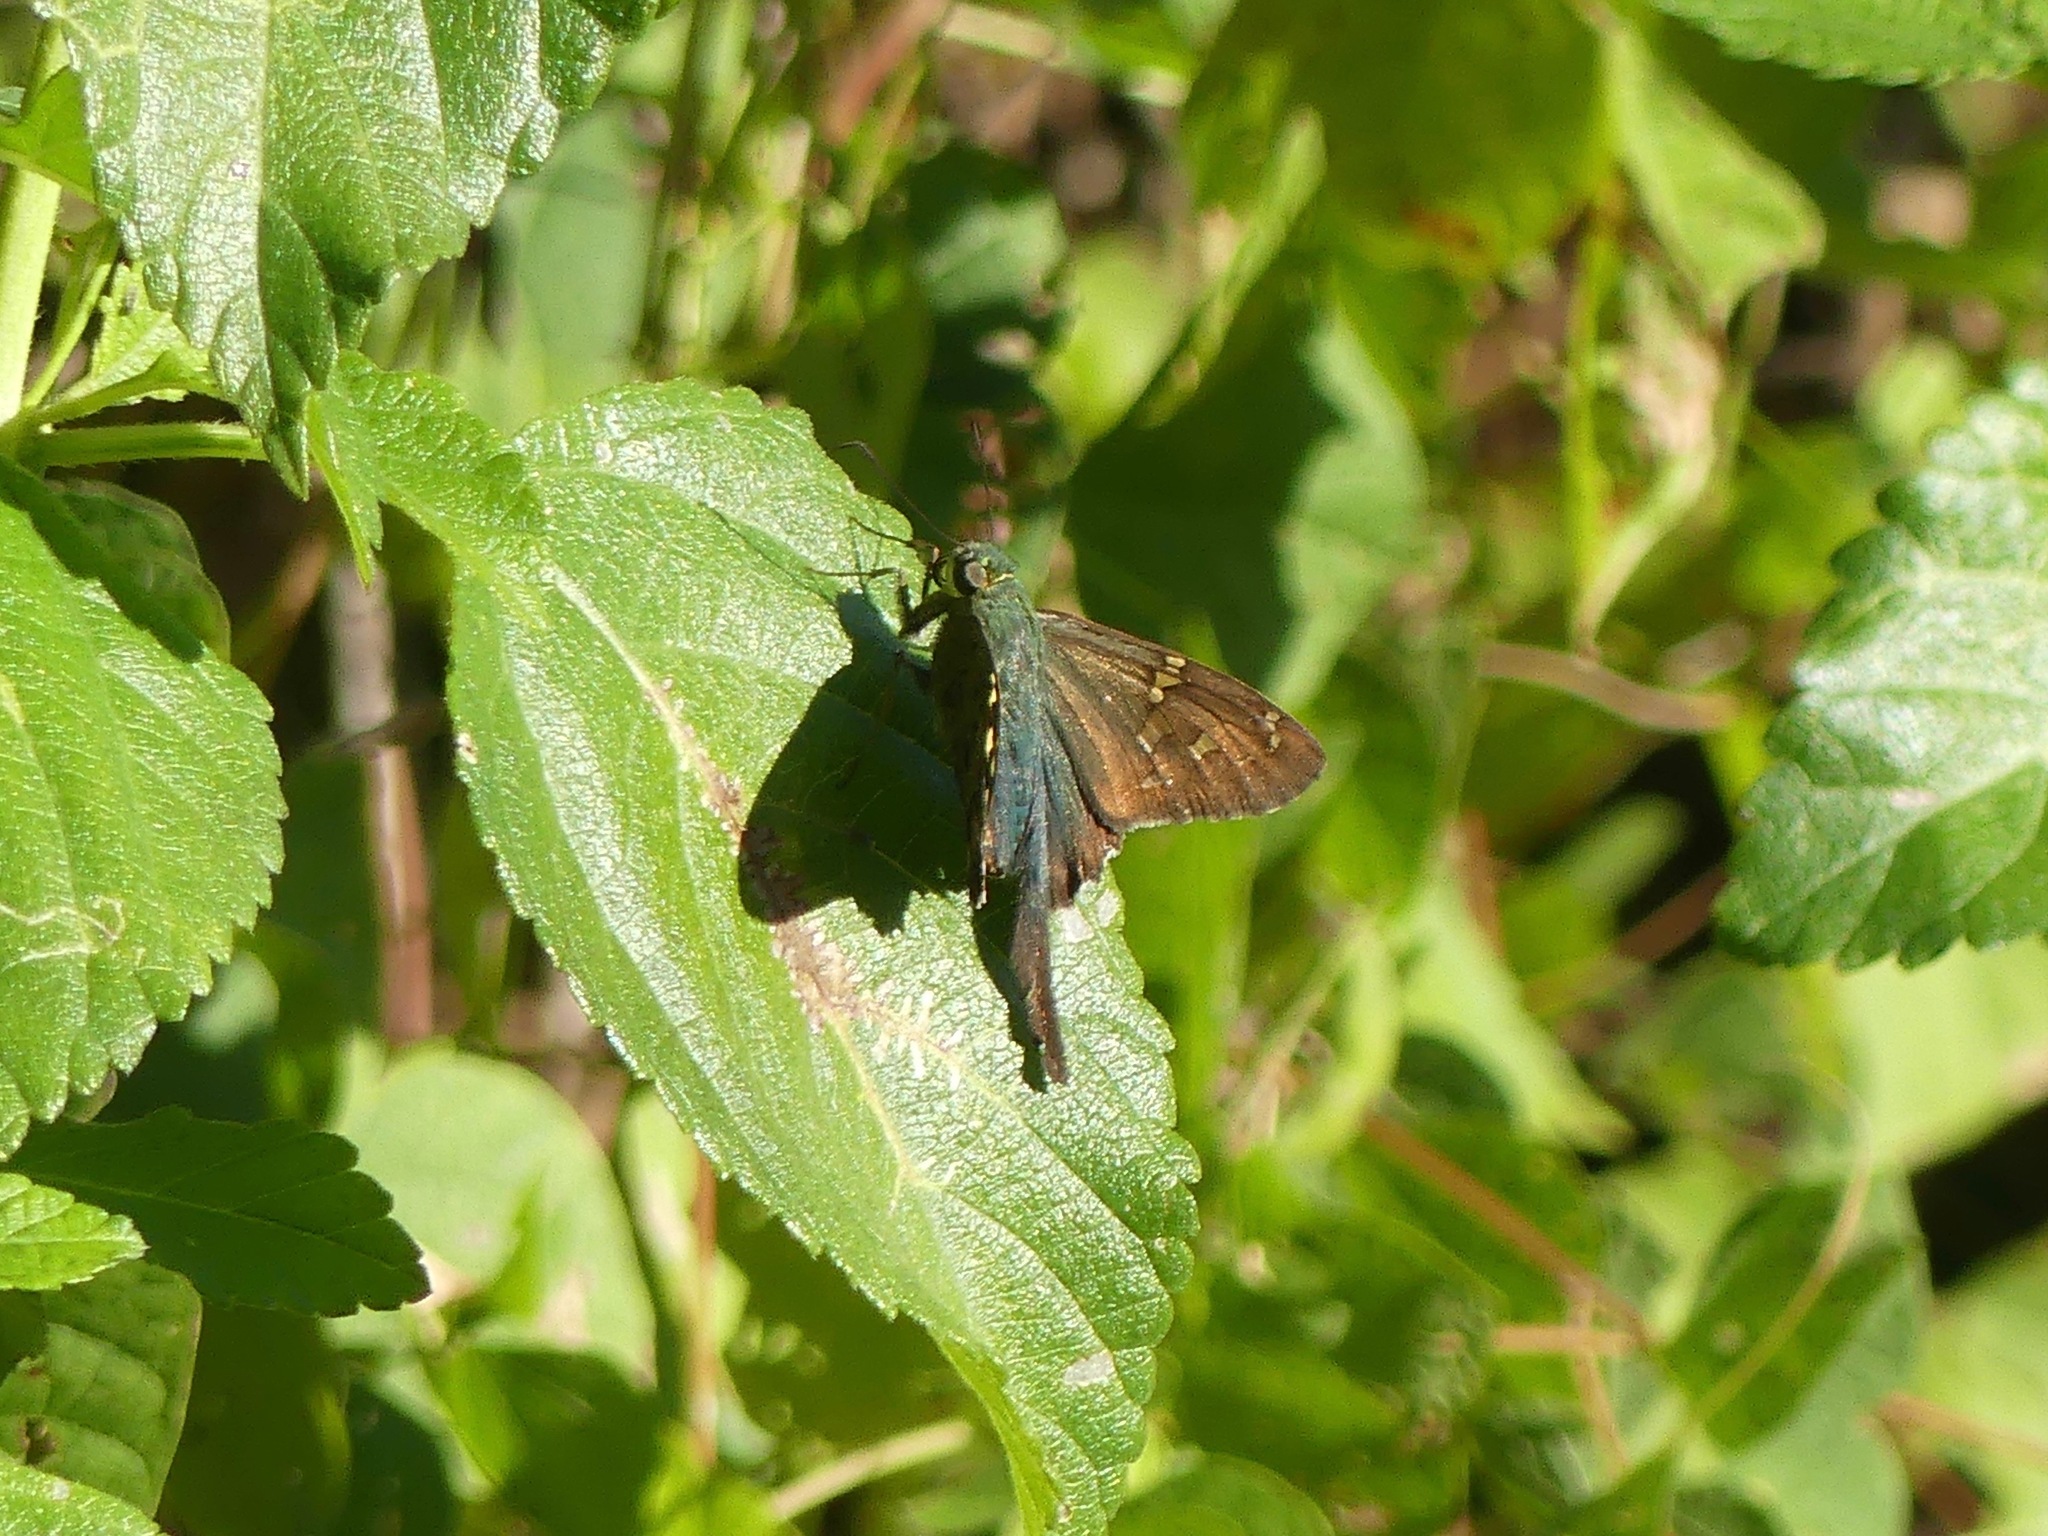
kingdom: Animalia
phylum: Arthropoda
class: Insecta
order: Lepidoptera
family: Hesperiidae
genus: Urbanus
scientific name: Urbanus proteus
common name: Long-tailed skipper
